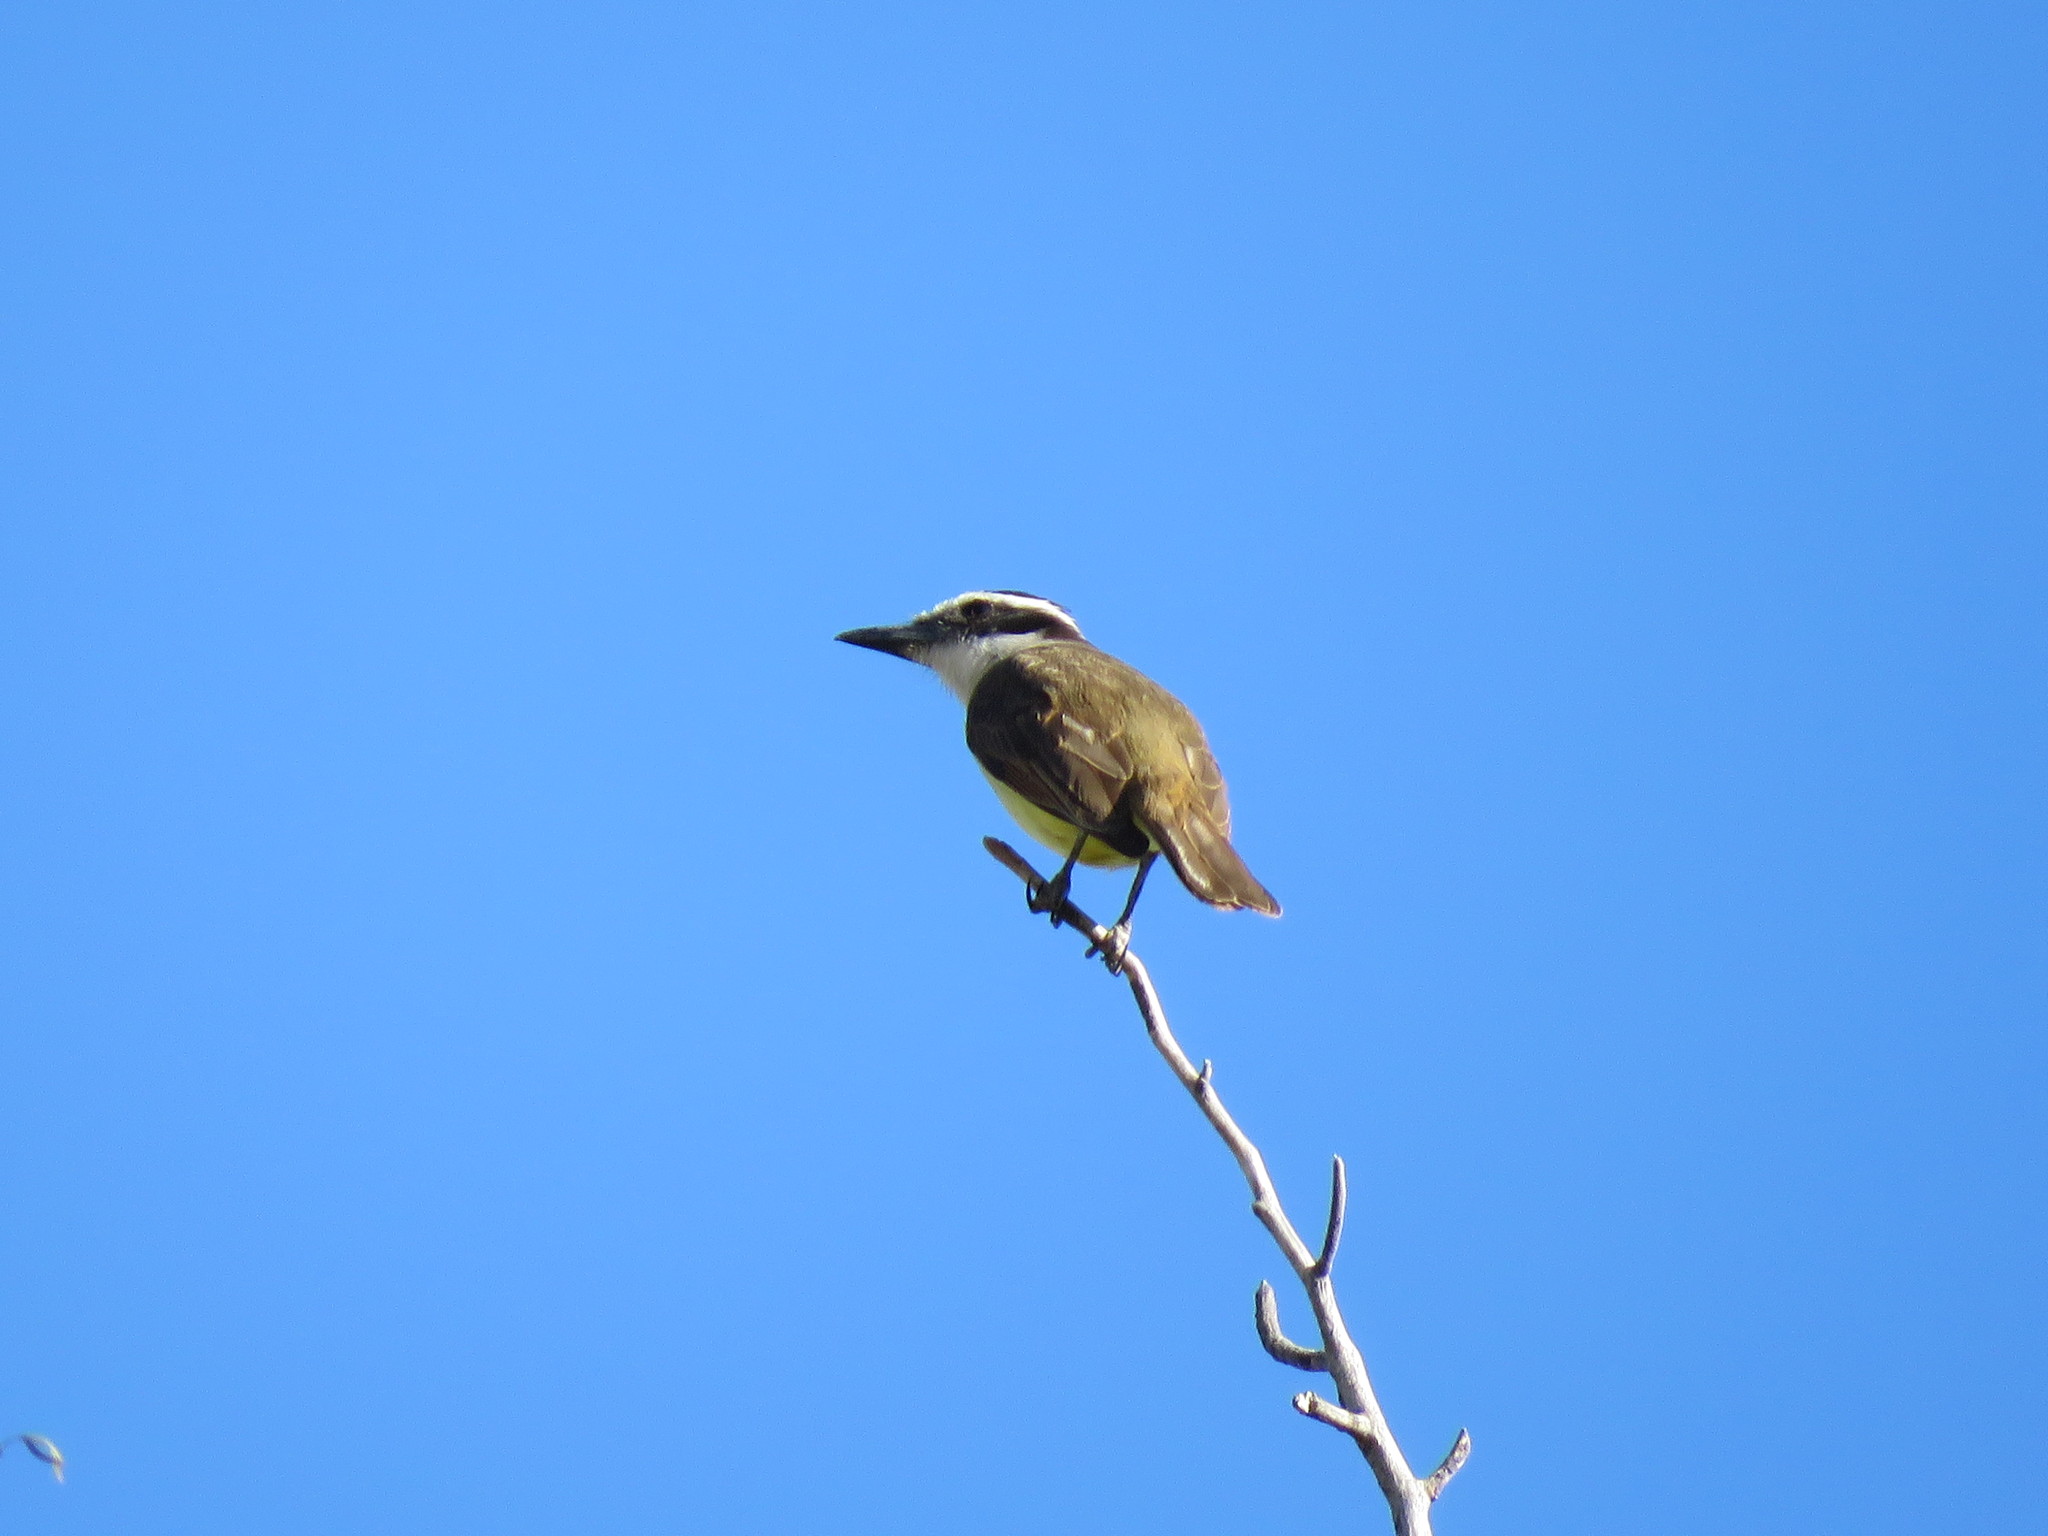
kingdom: Animalia
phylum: Chordata
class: Aves
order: Passeriformes
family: Tyrannidae
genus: Pitangus
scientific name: Pitangus sulphuratus
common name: Great kiskadee
